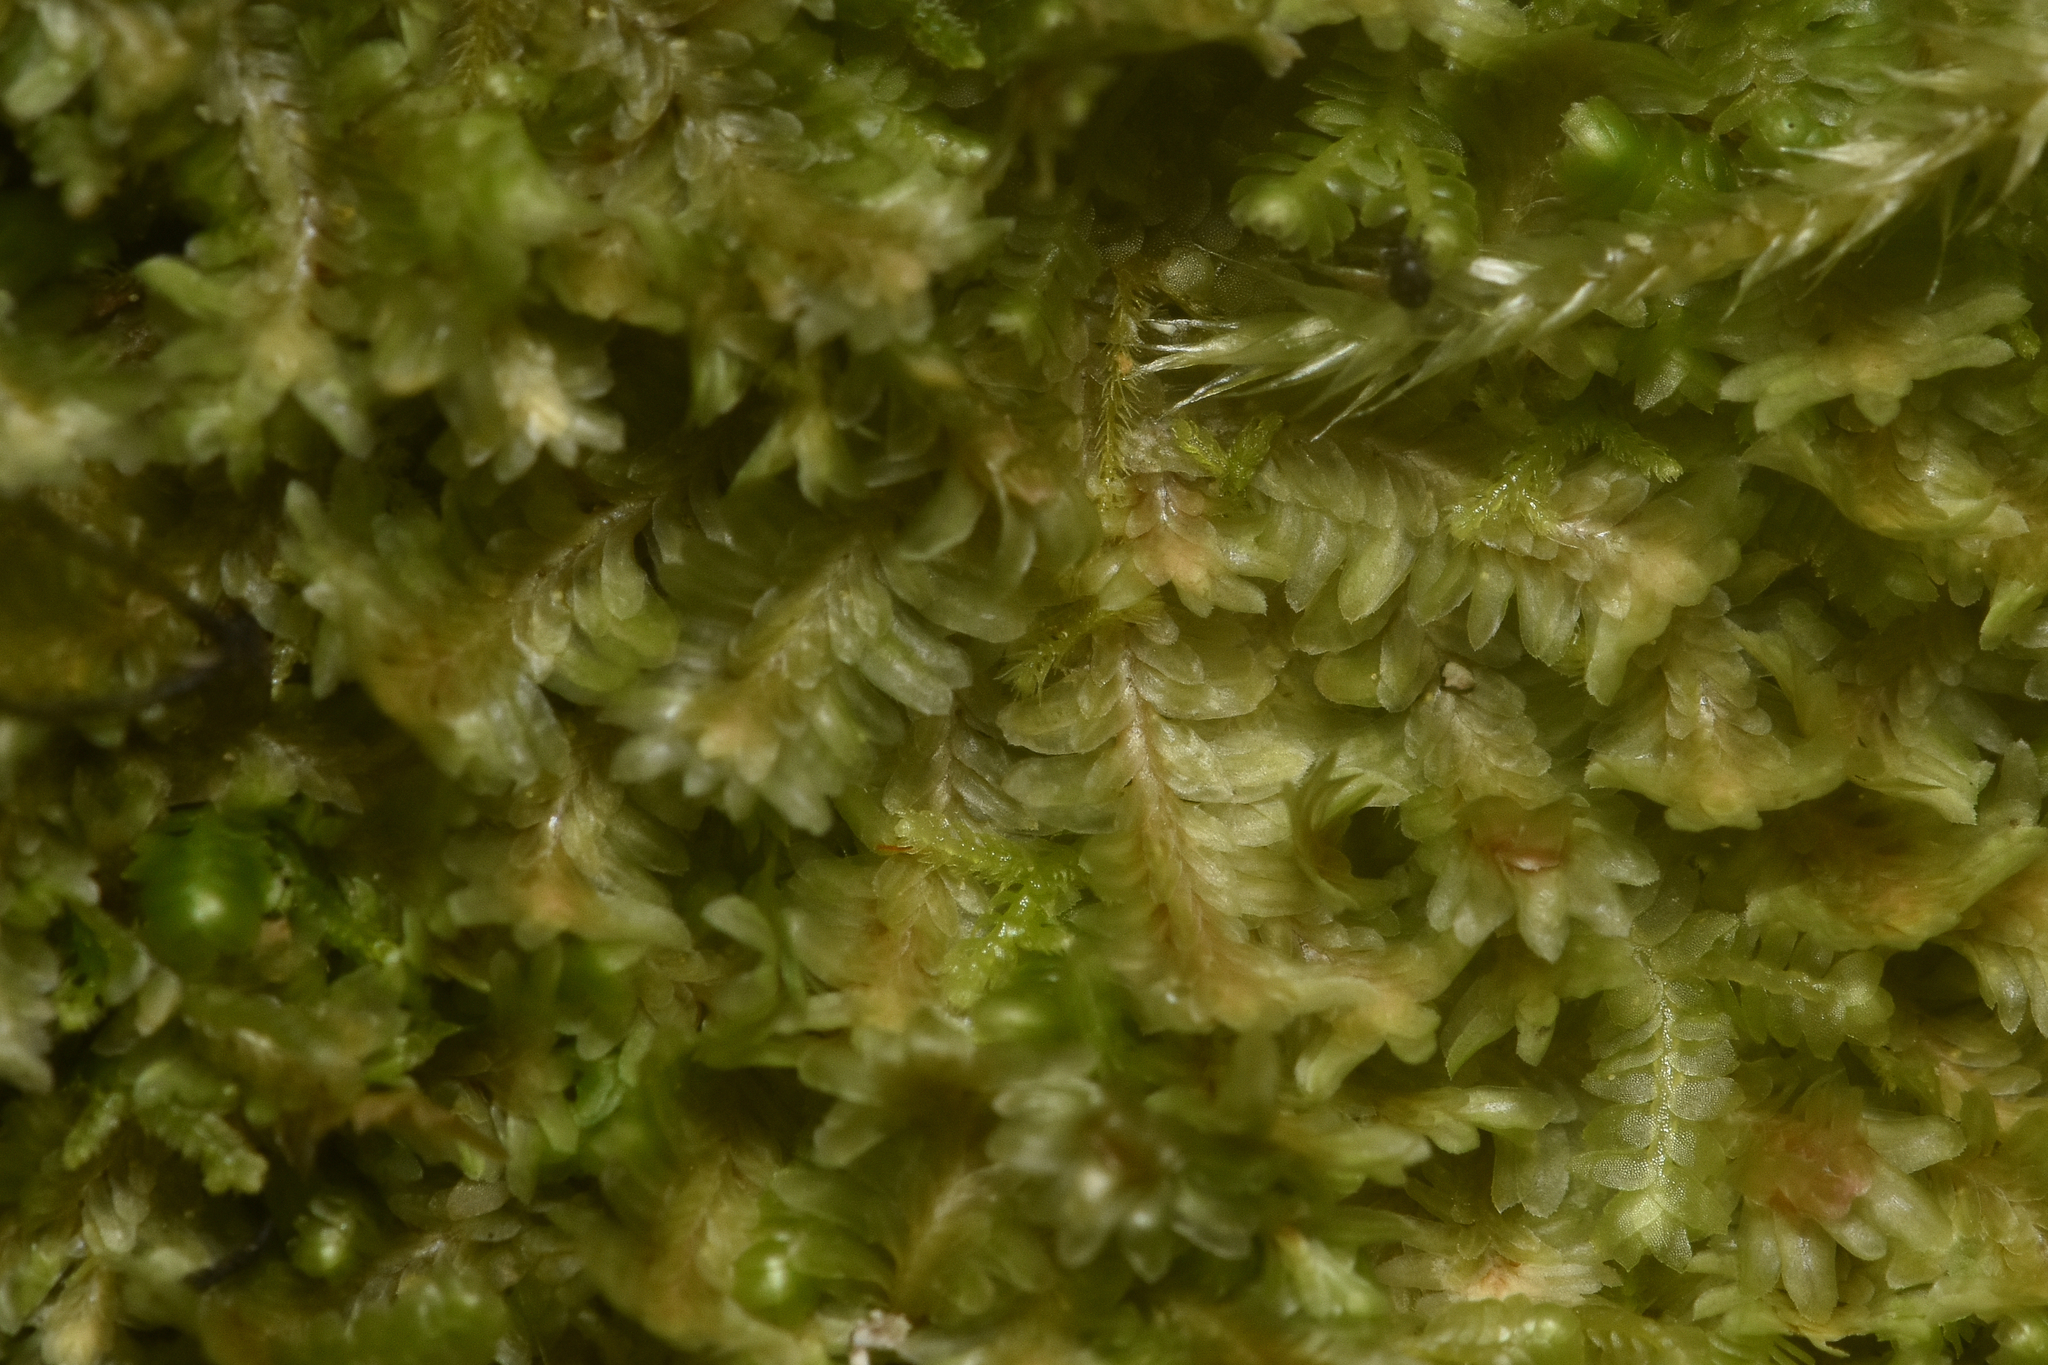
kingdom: Plantae
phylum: Marchantiophyta
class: Jungermanniopsida
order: Jungermanniales
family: Scapaniaceae
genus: Diplophyllum
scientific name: Diplophyllum albicans
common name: White earwort
